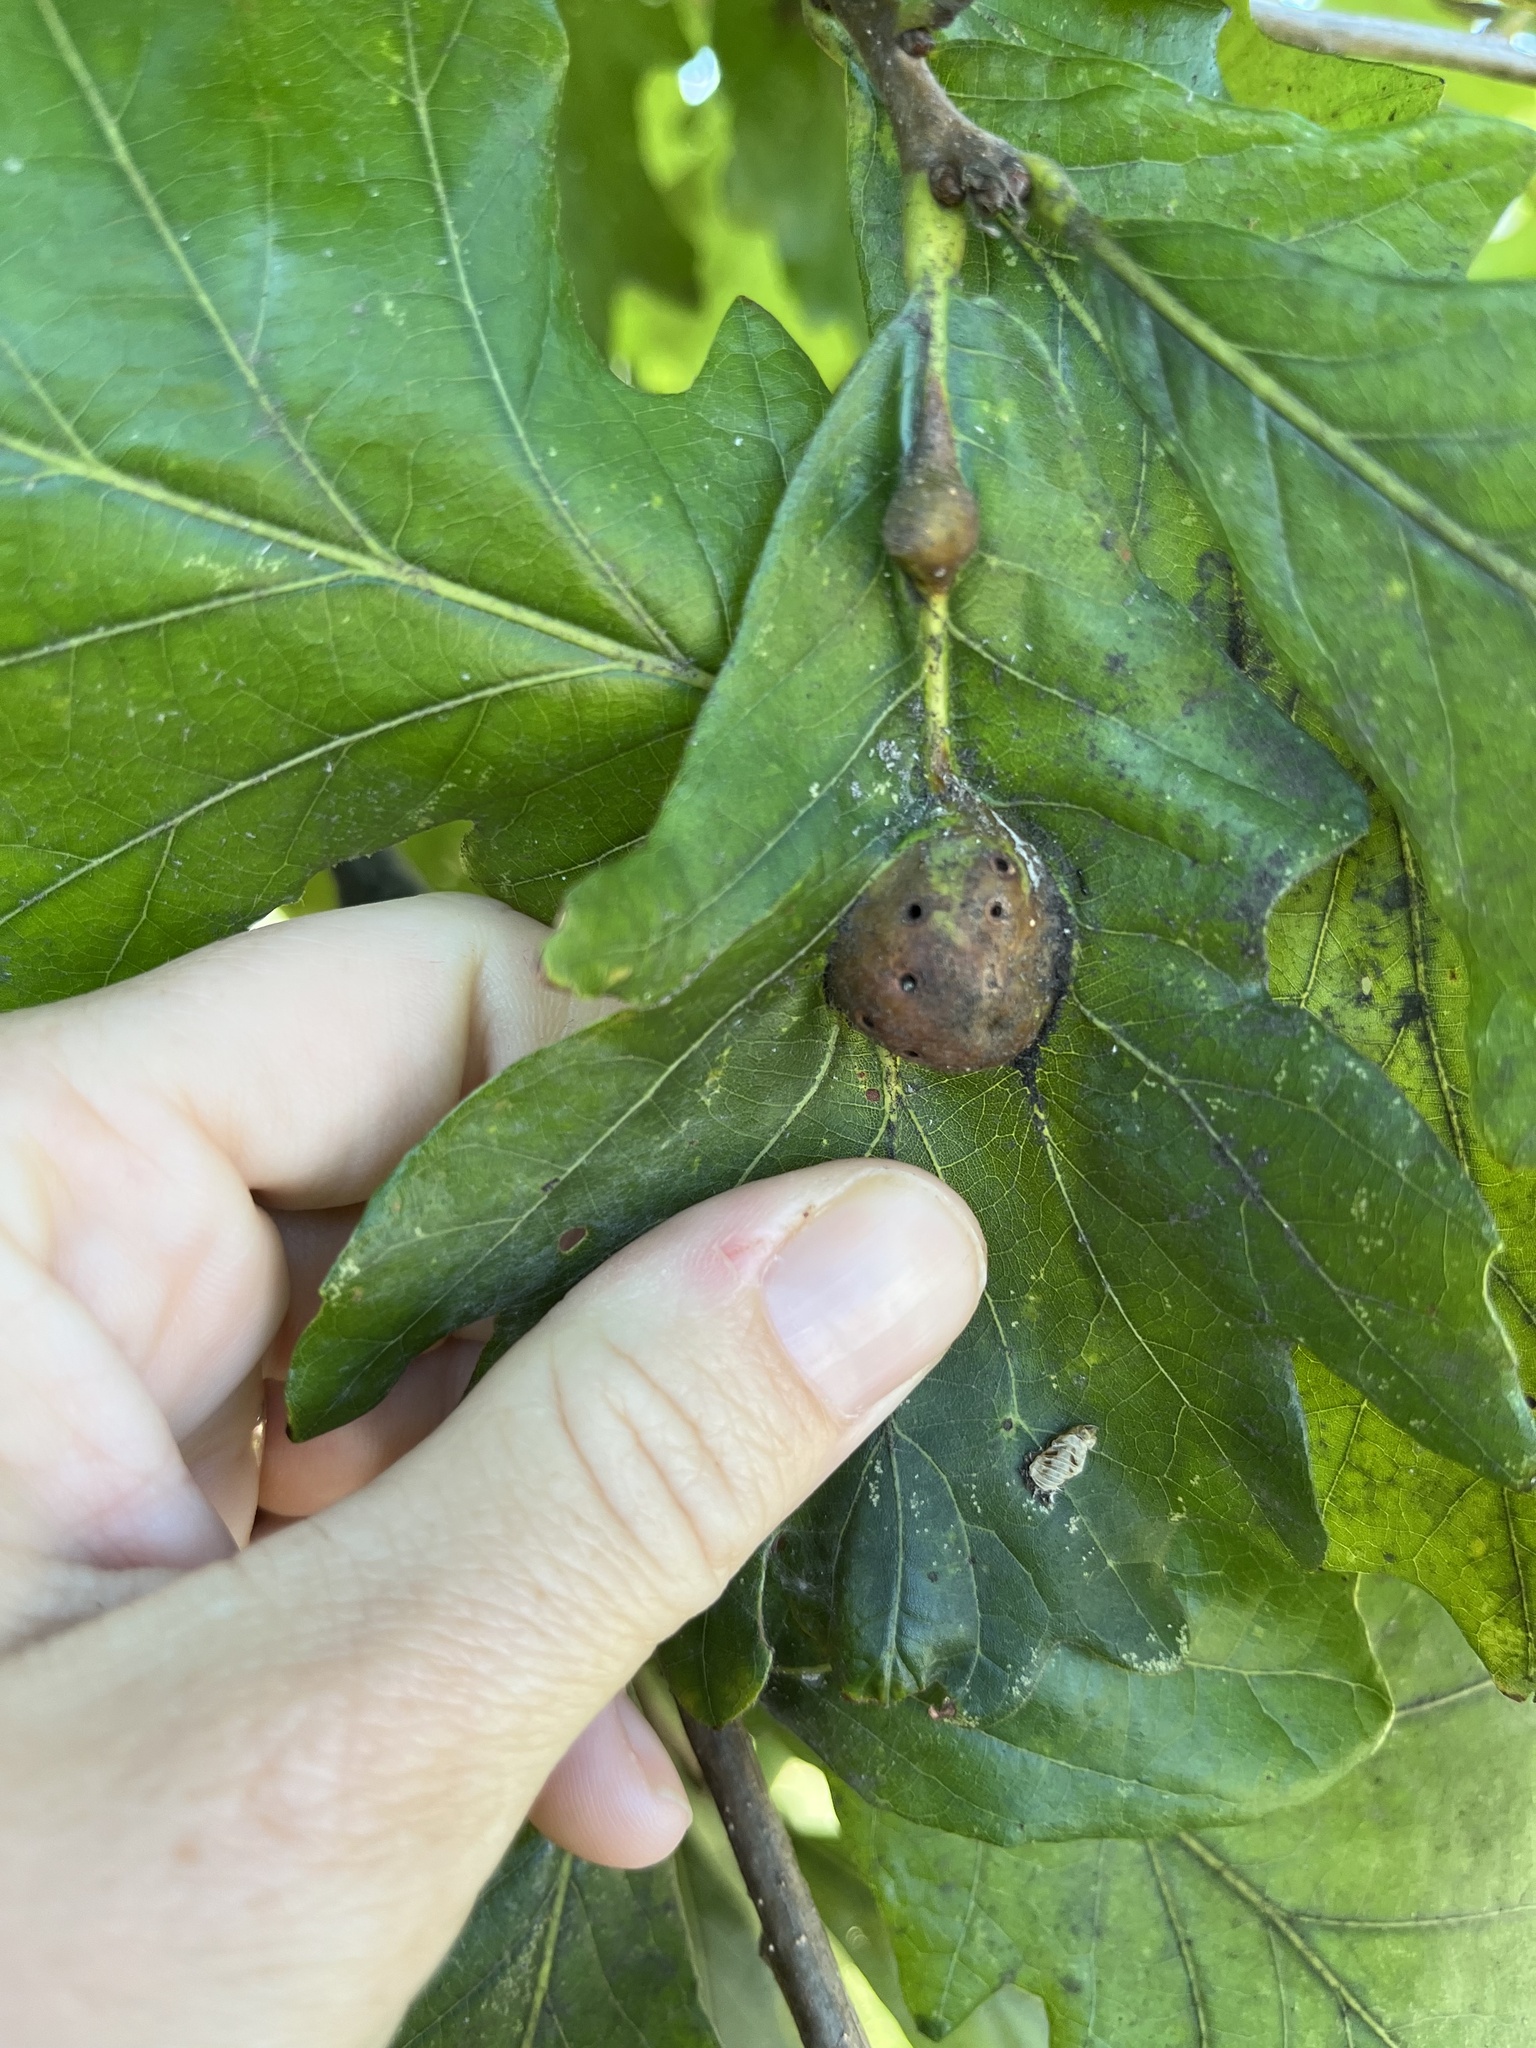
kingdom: Animalia
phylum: Arthropoda
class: Insecta
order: Hymenoptera
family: Cynipidae
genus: Andricus
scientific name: Andricus
